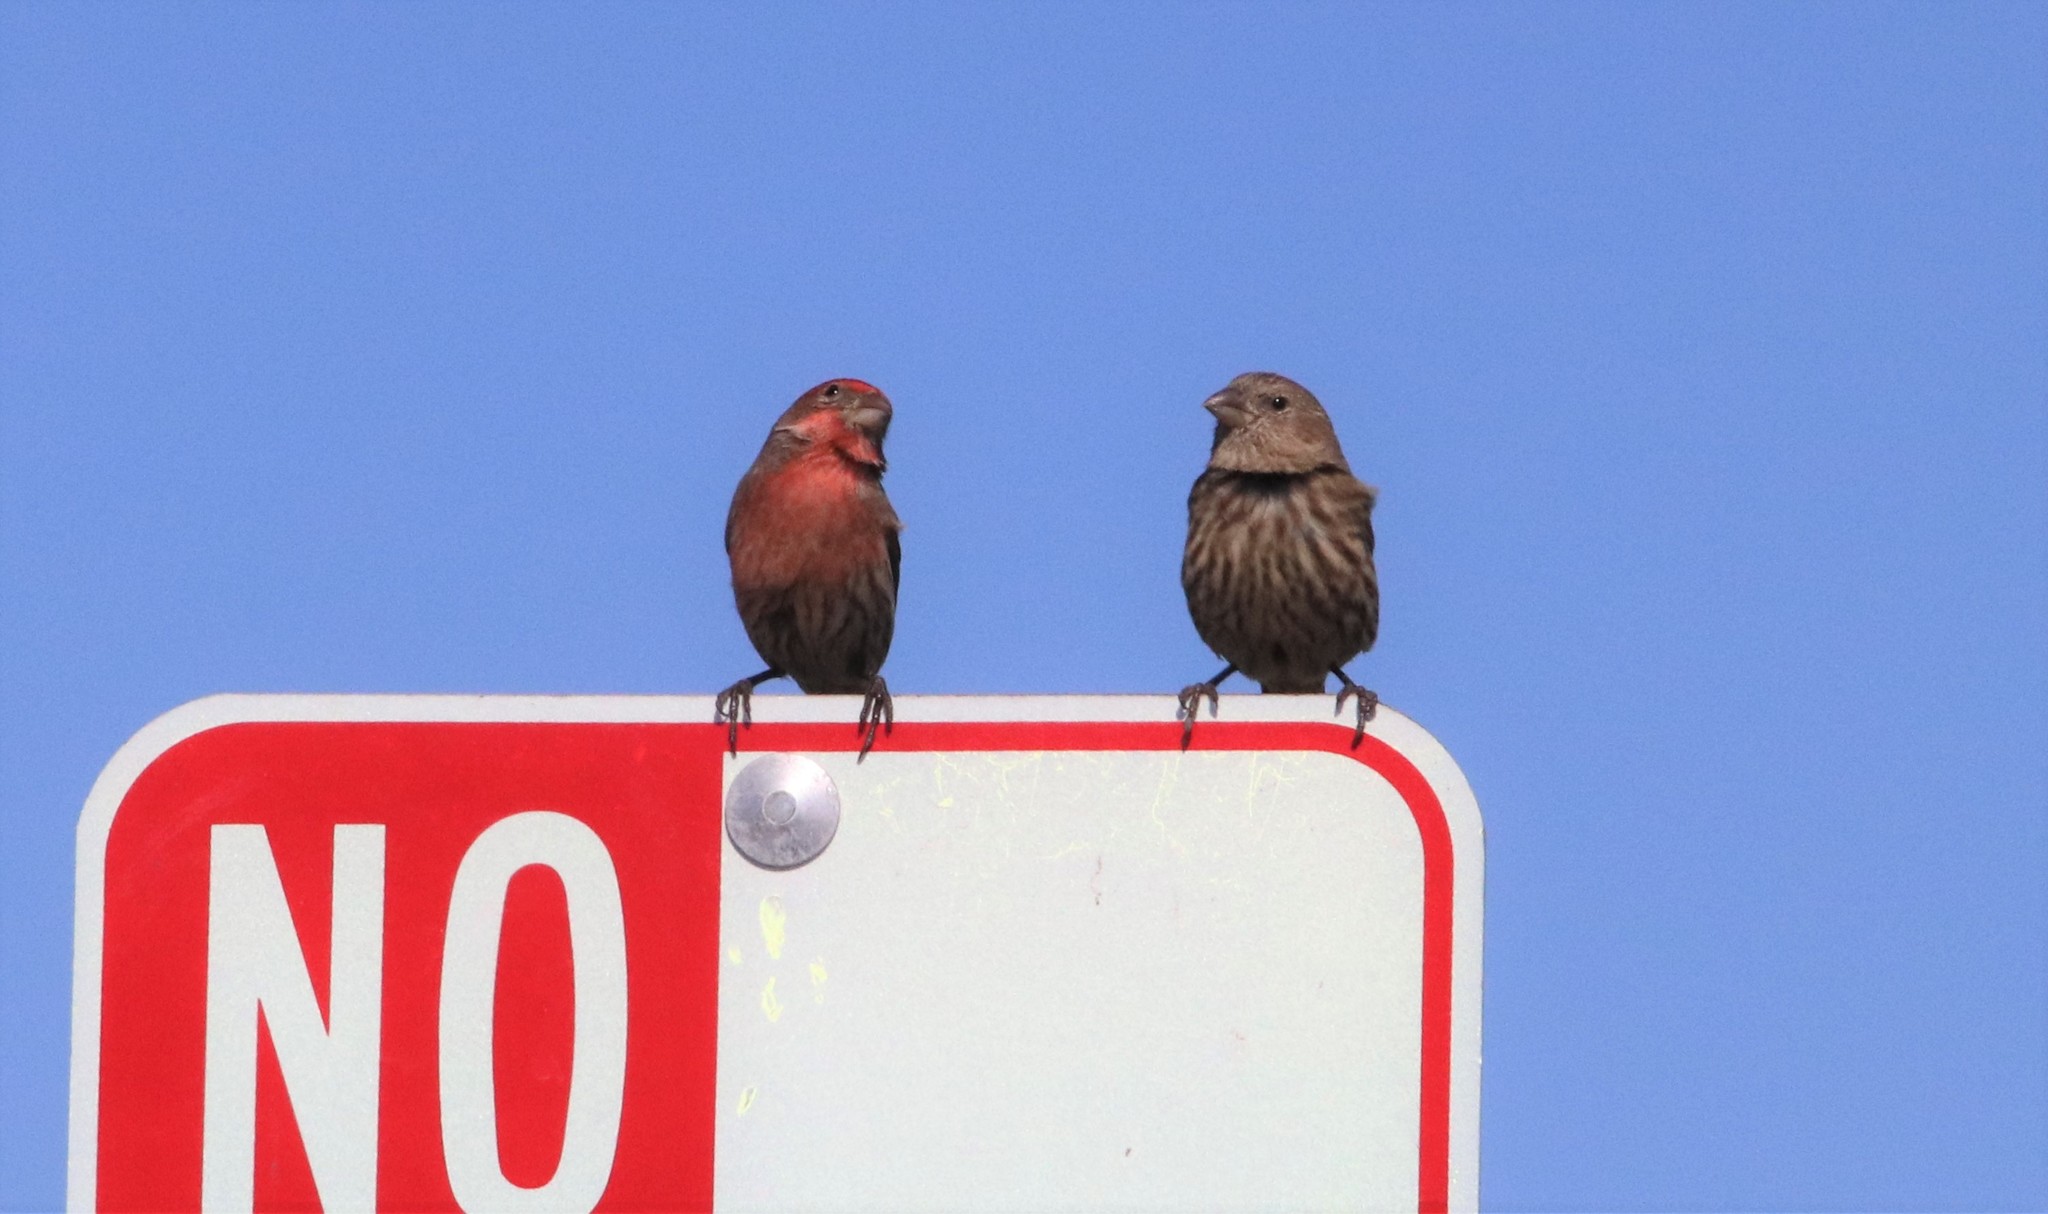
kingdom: Animalia
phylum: Chordata
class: Aves
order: Passeriformes
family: Fringillidae
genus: Haemorhous
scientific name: Haemorhous mexicanus
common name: House finch
